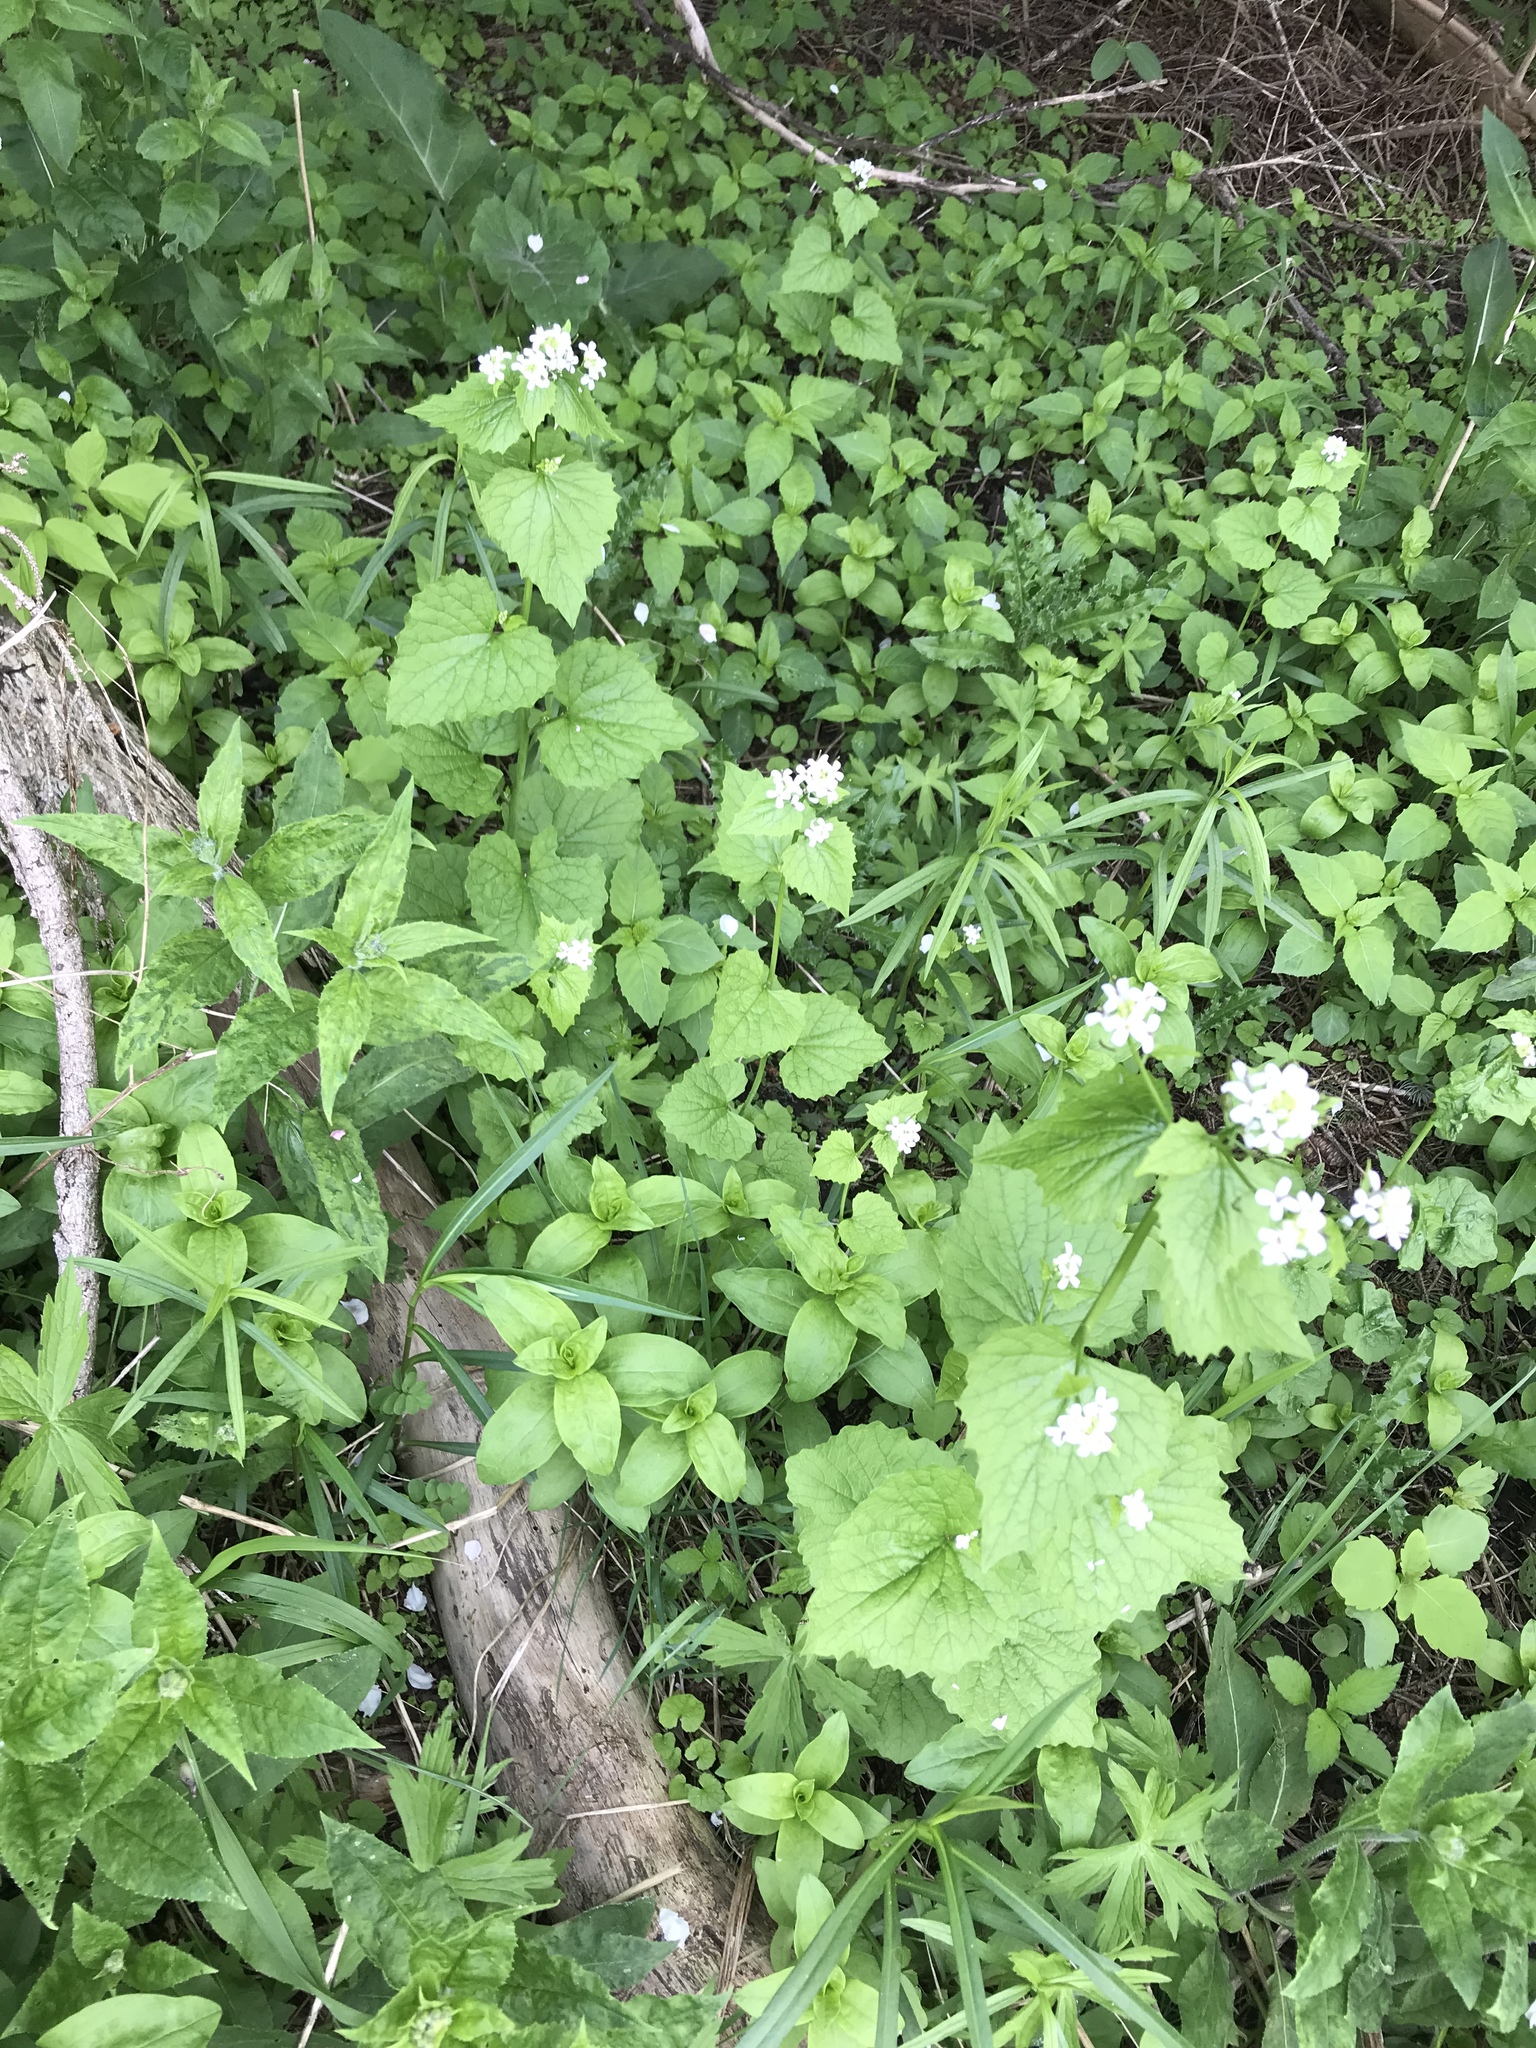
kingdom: Plantae
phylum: Tracheophyta
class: Magnoliopsida
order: Brassicales
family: Brassicaceae
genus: Alliaria
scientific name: Alliaria petiolata
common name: Garlic mustard
